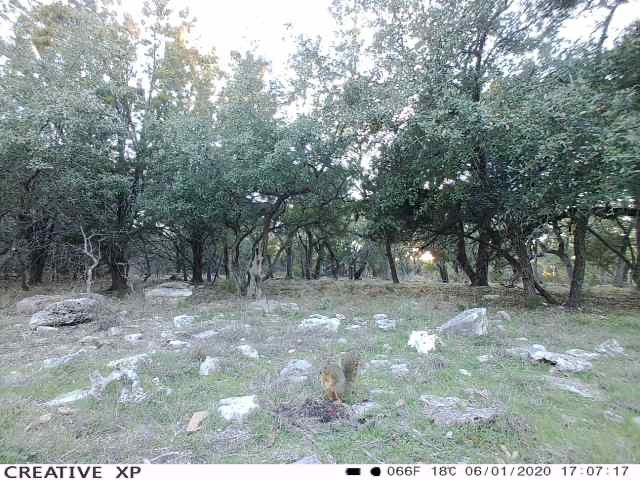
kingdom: Animalia
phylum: Chordata
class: Mammalia
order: Rodentia
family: Sciuridae
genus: Sciurus
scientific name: Sciurus niger
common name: Fox squirrel
